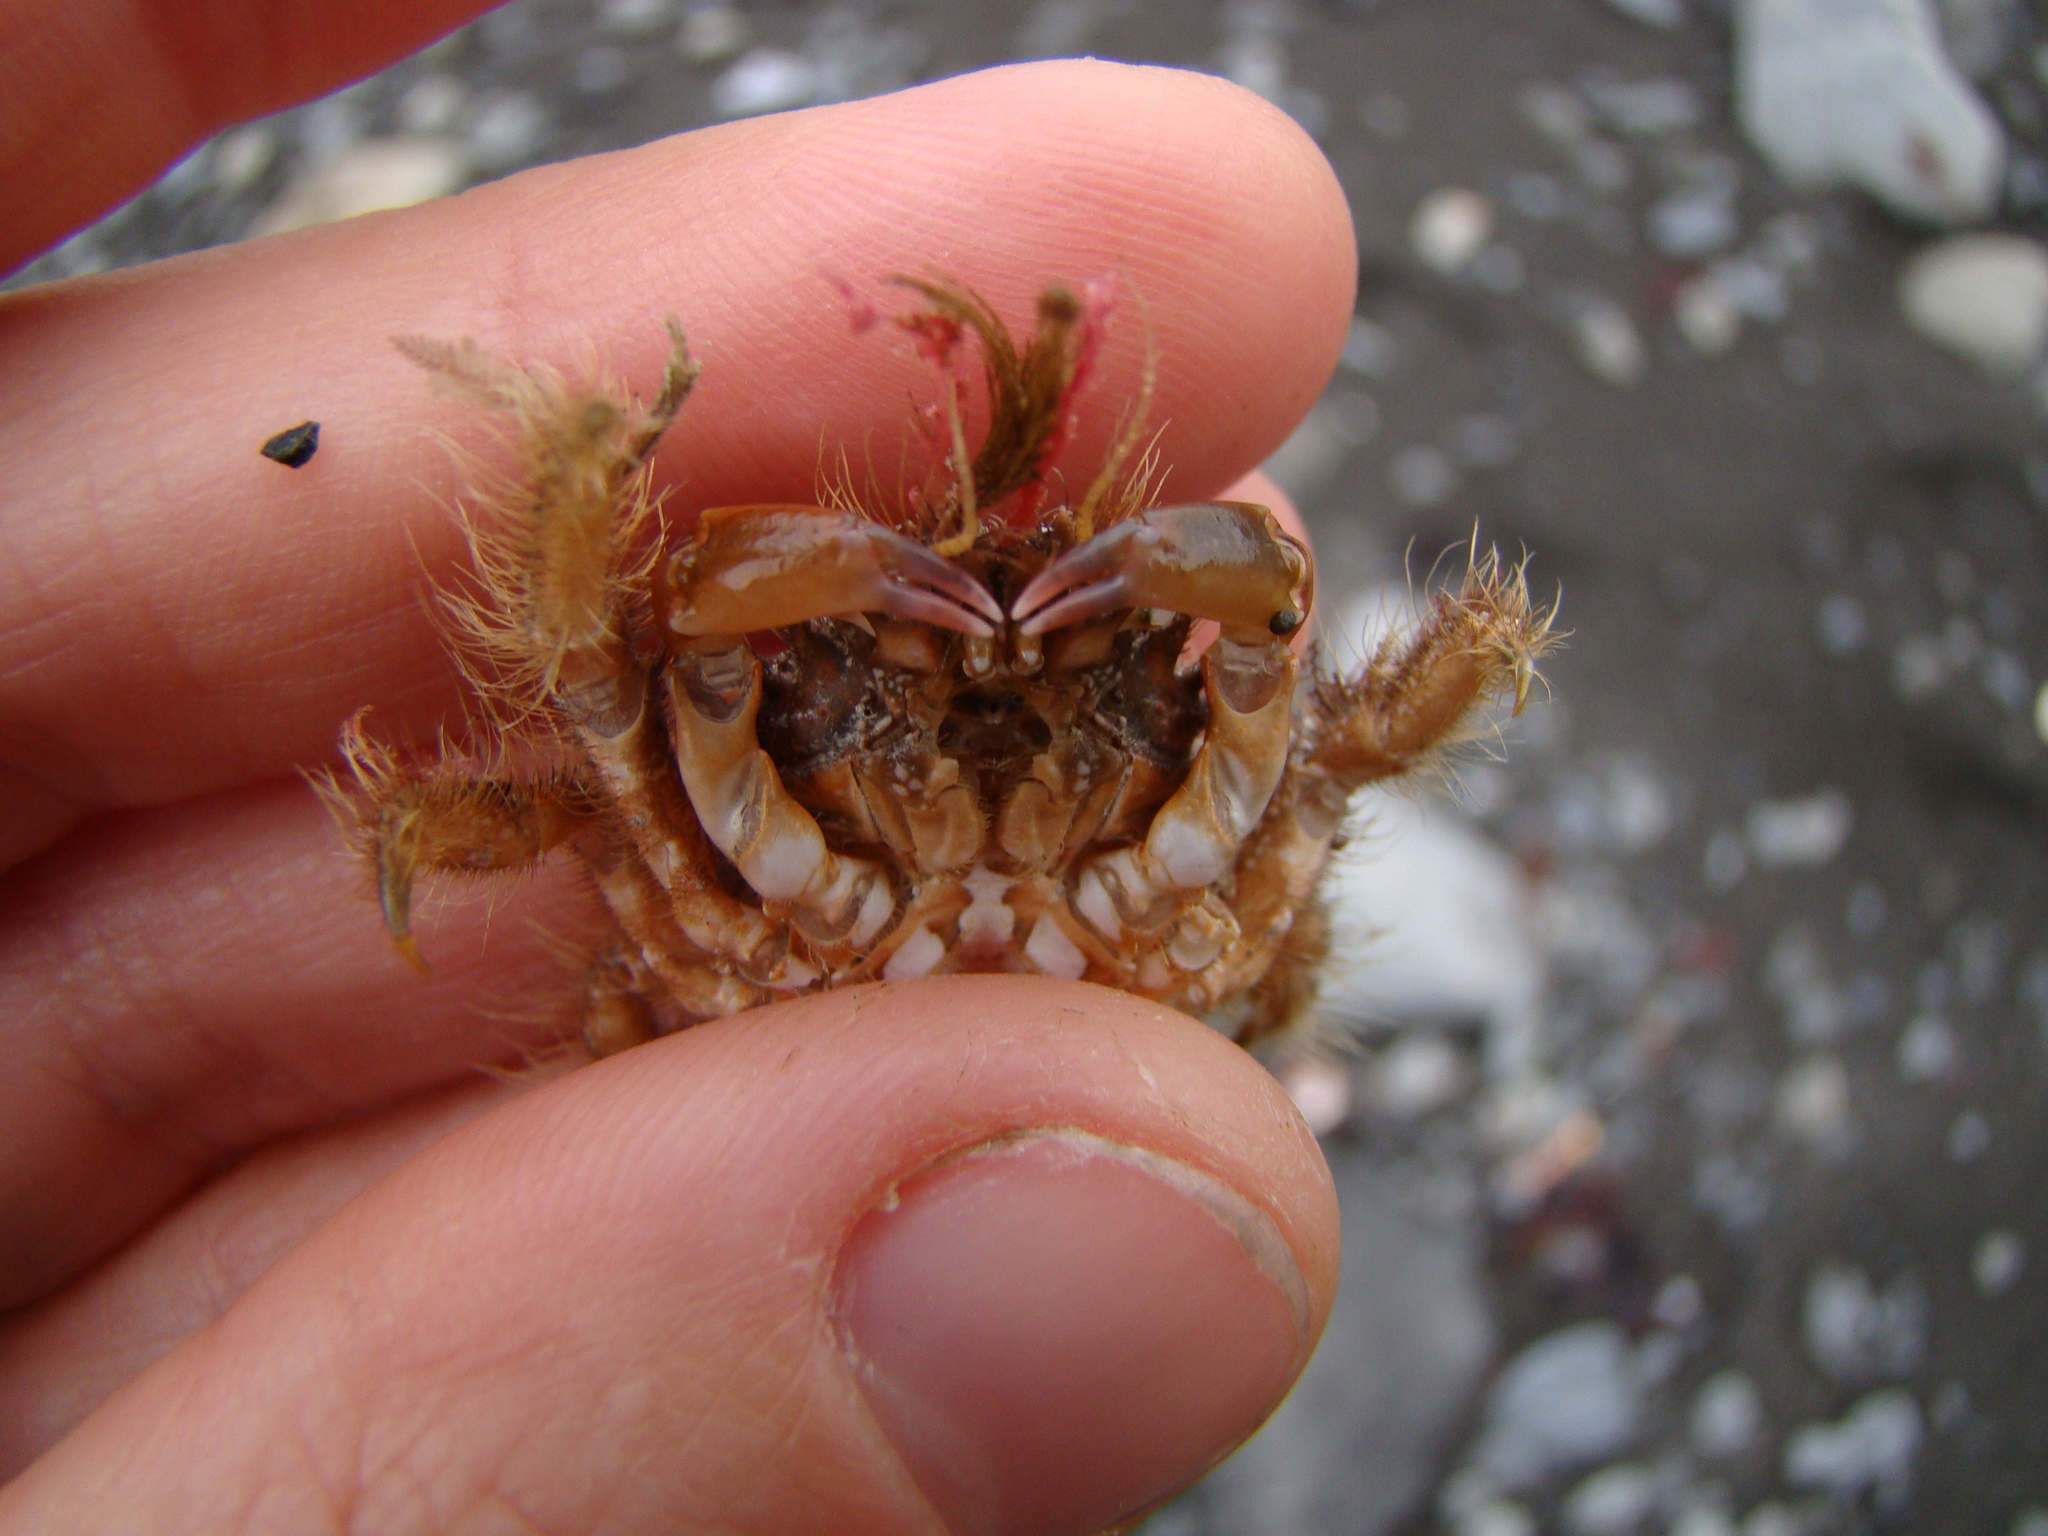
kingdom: Animalia
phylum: Arthropoda
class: Malacostraca
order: Decapoda
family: Majidae
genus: Notomithrax
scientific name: Notomithrax ursus
